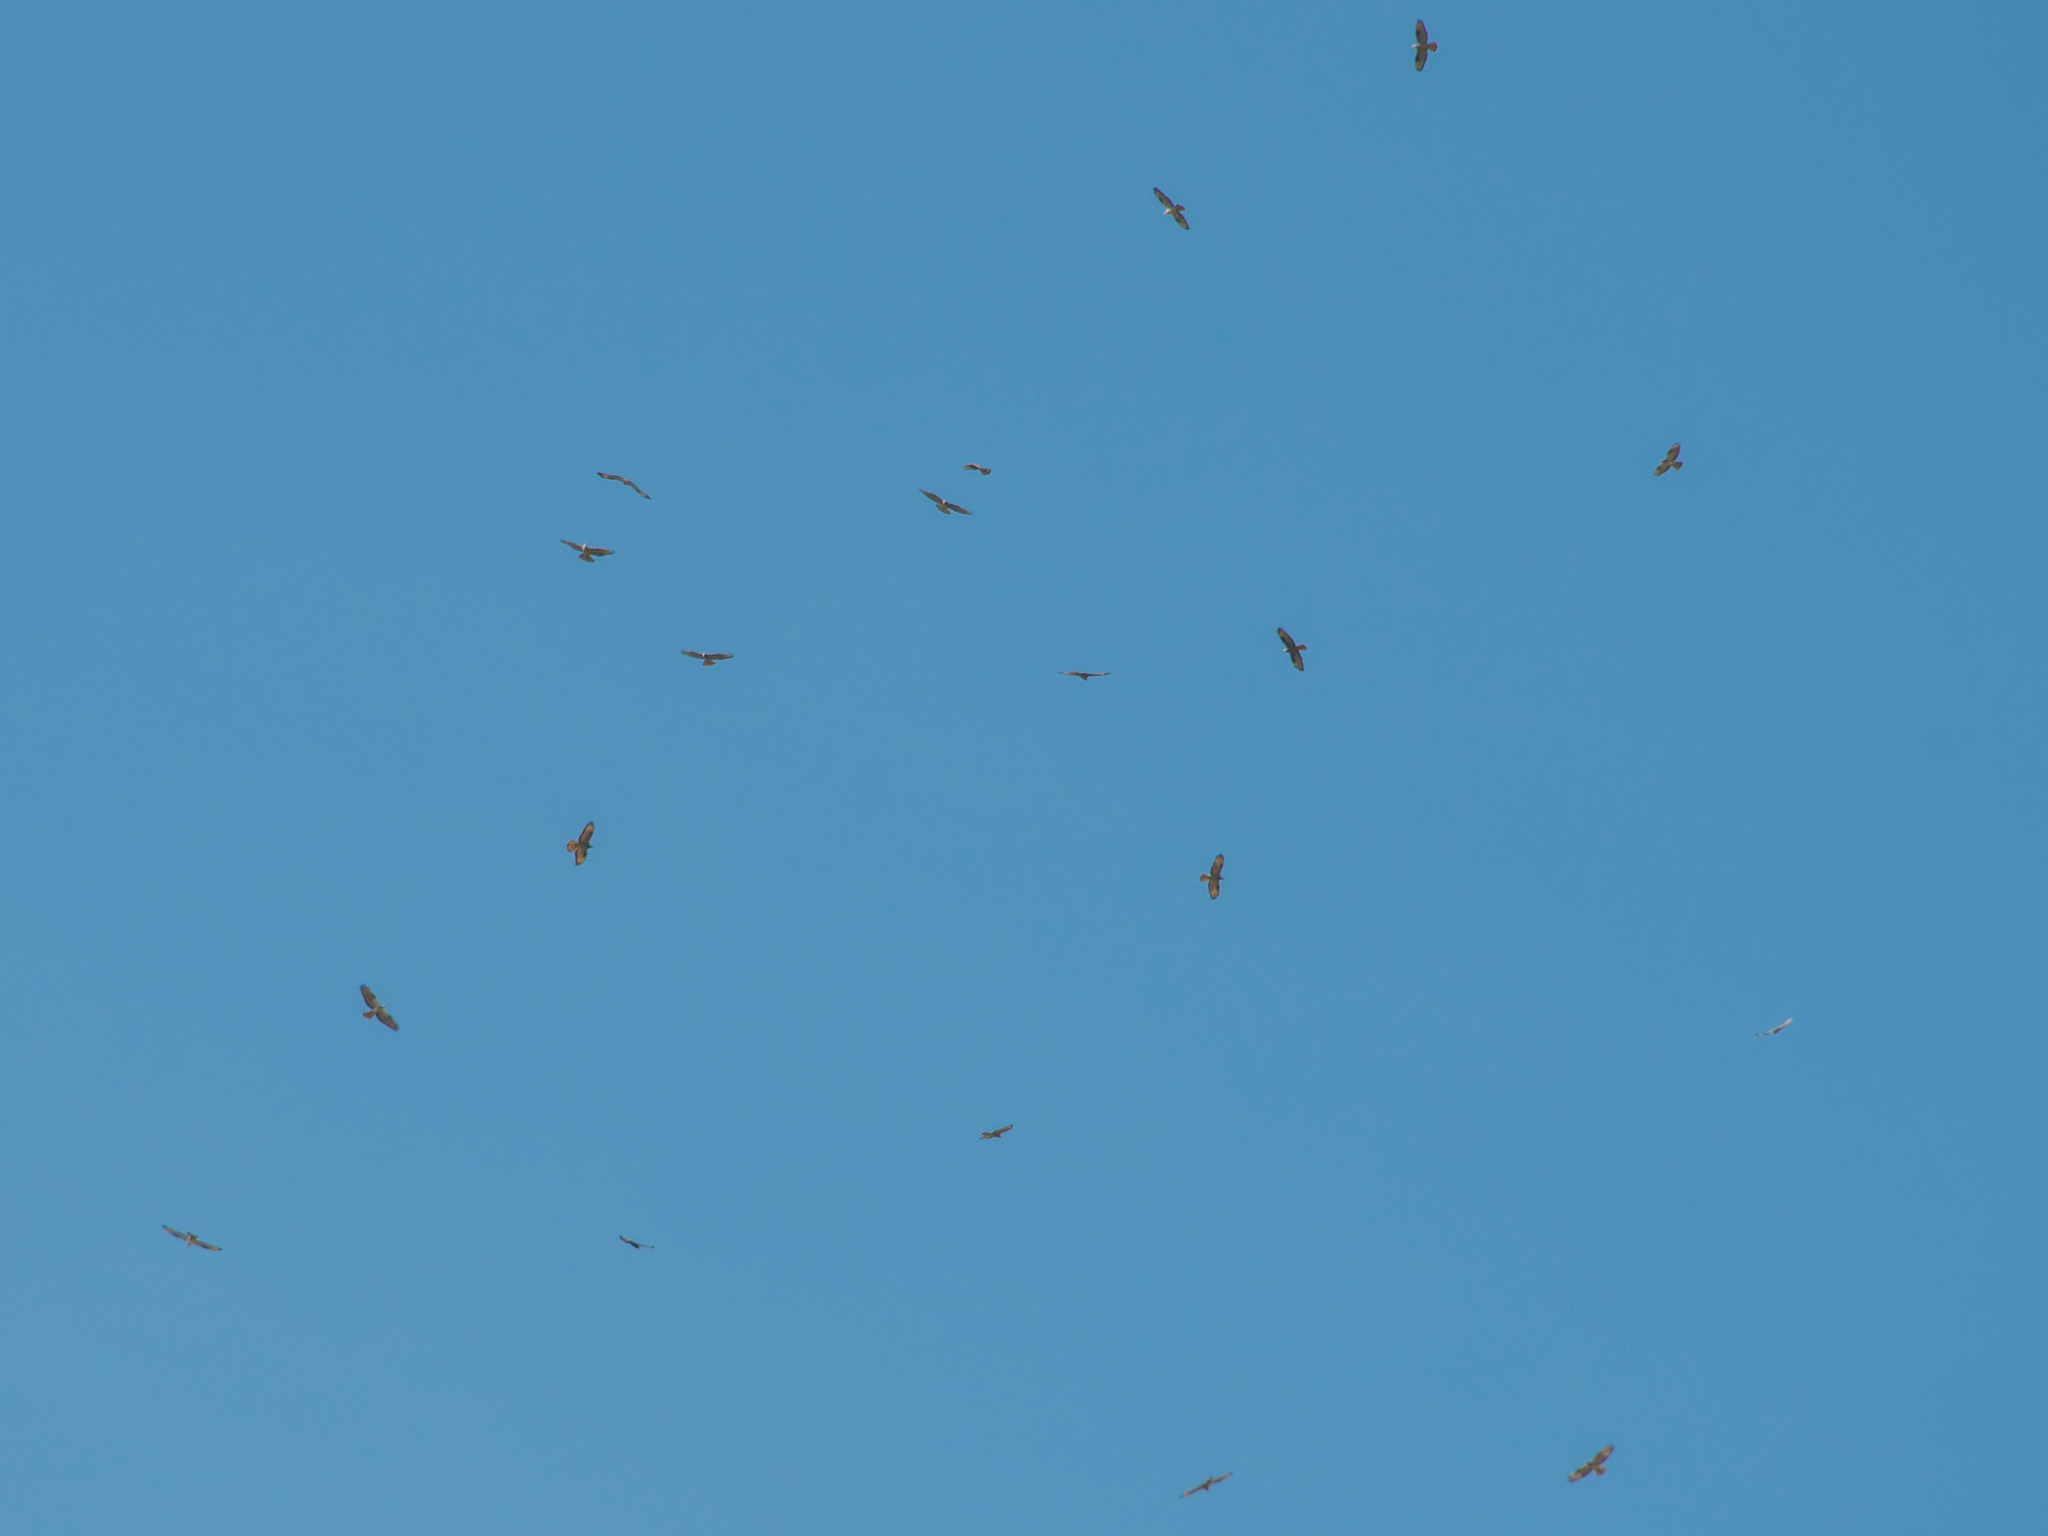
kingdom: Animalia
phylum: Chordata
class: Aves
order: Accipitriformes
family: Accipitridae
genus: Pernis
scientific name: Pernis apivorus
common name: European honey buzzard
